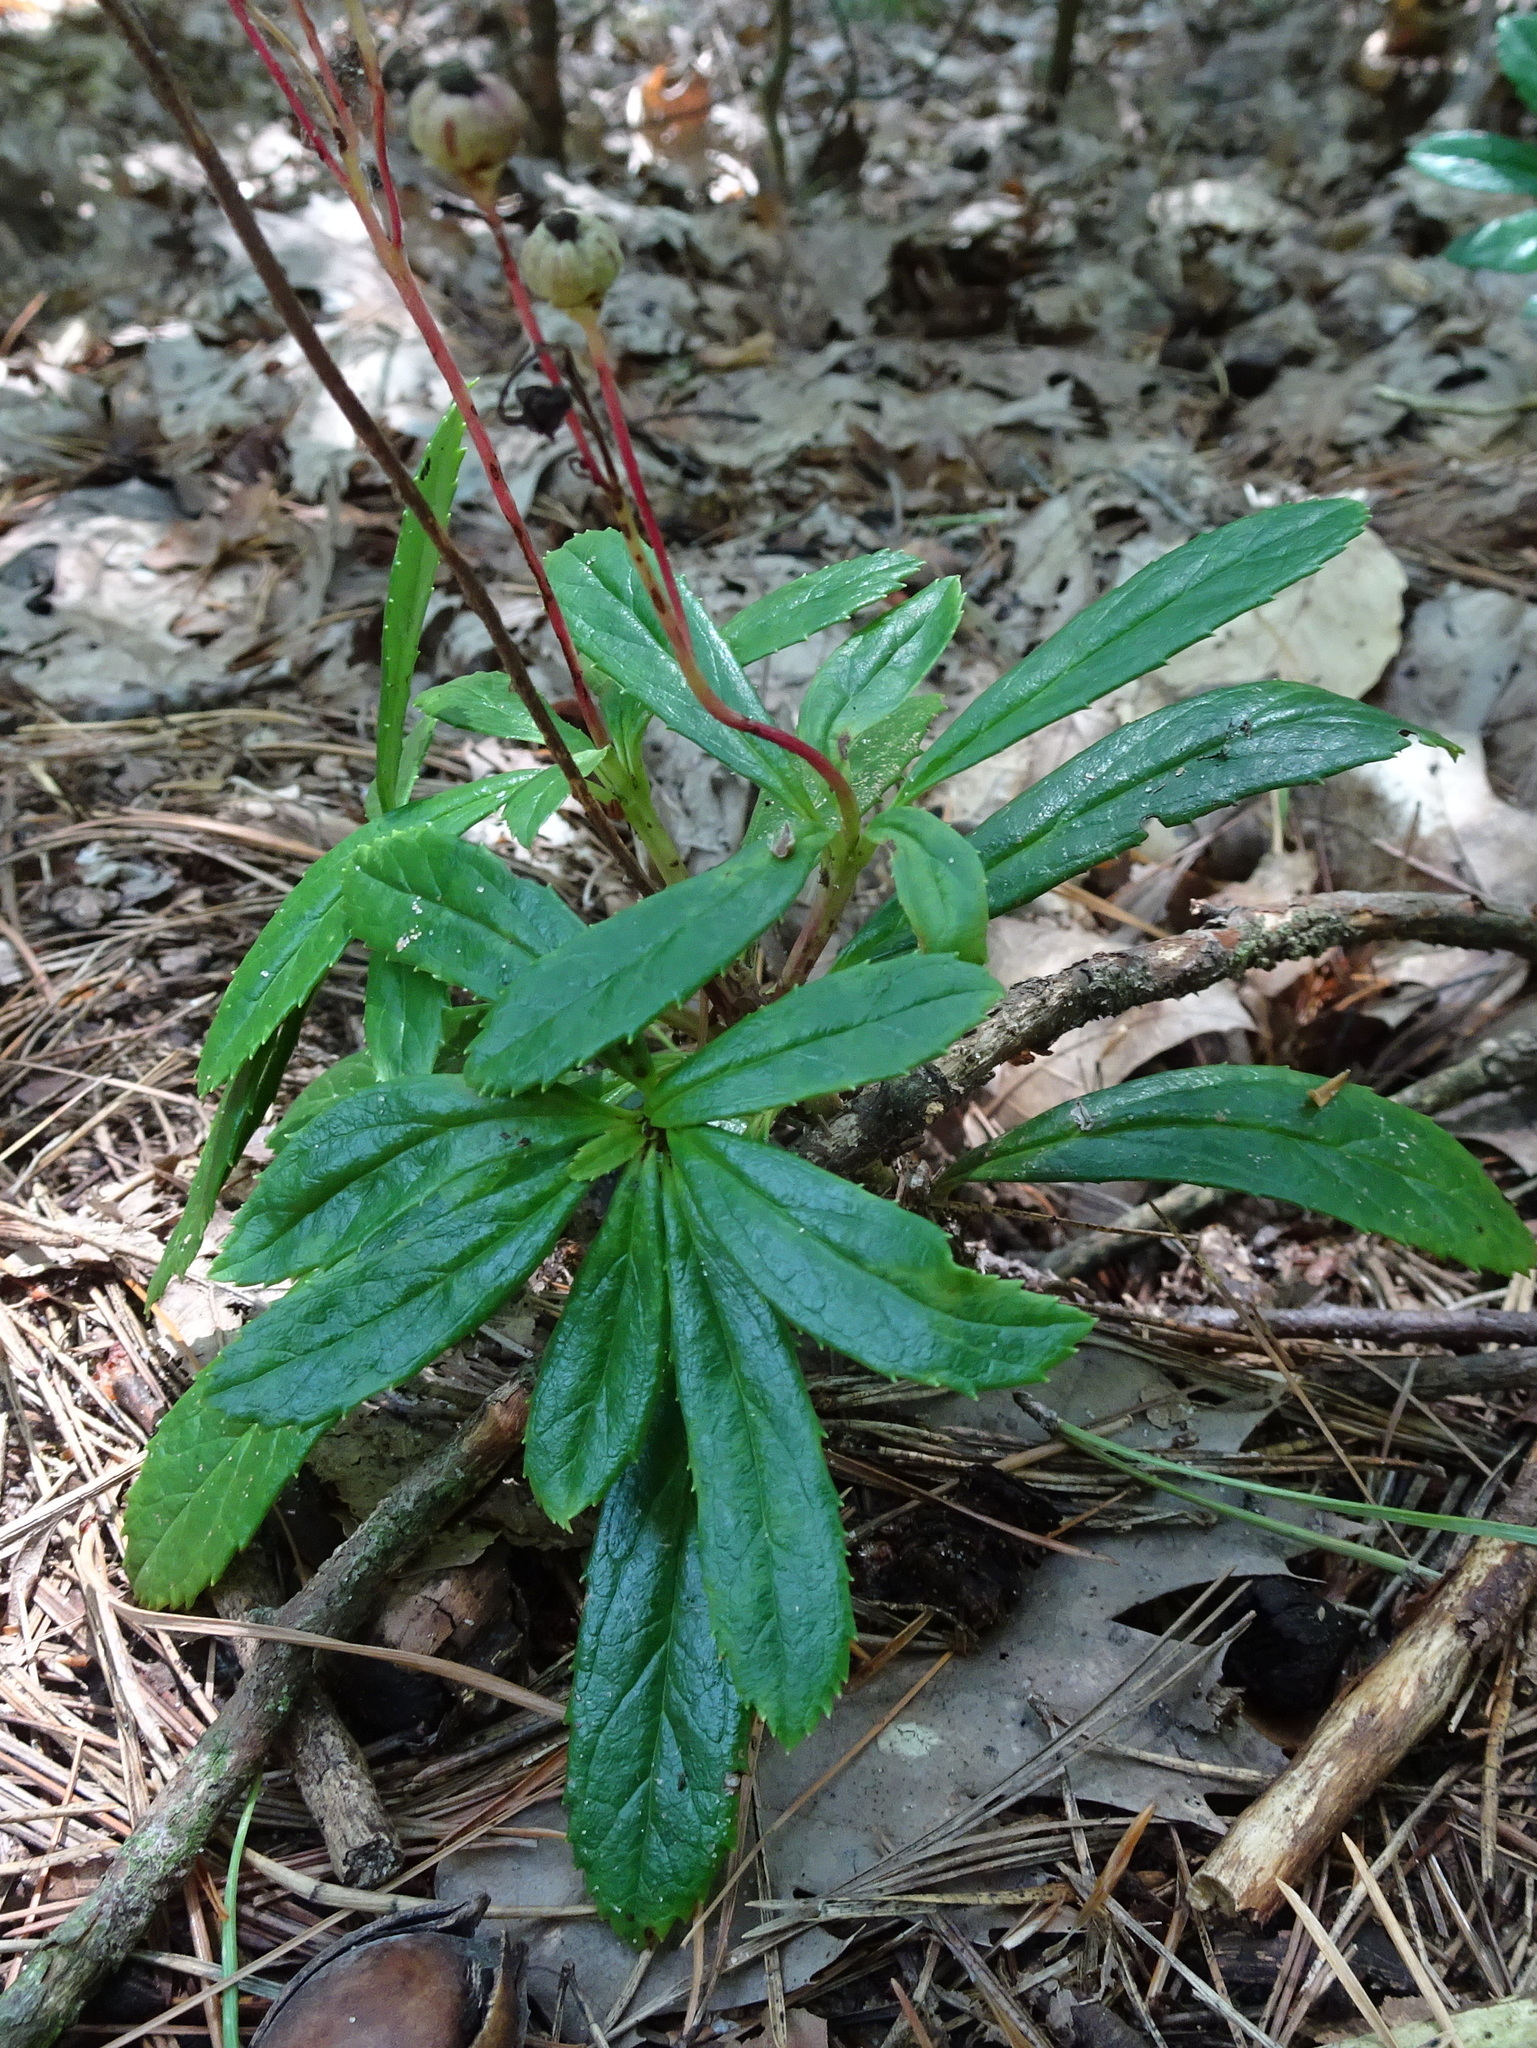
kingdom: Plantae
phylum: Tracheophyta
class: Magnoliopsida
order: Ericales
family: Ericaceae
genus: Chimaphila
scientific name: Chimaphila umbellata
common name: Pipsissewa
